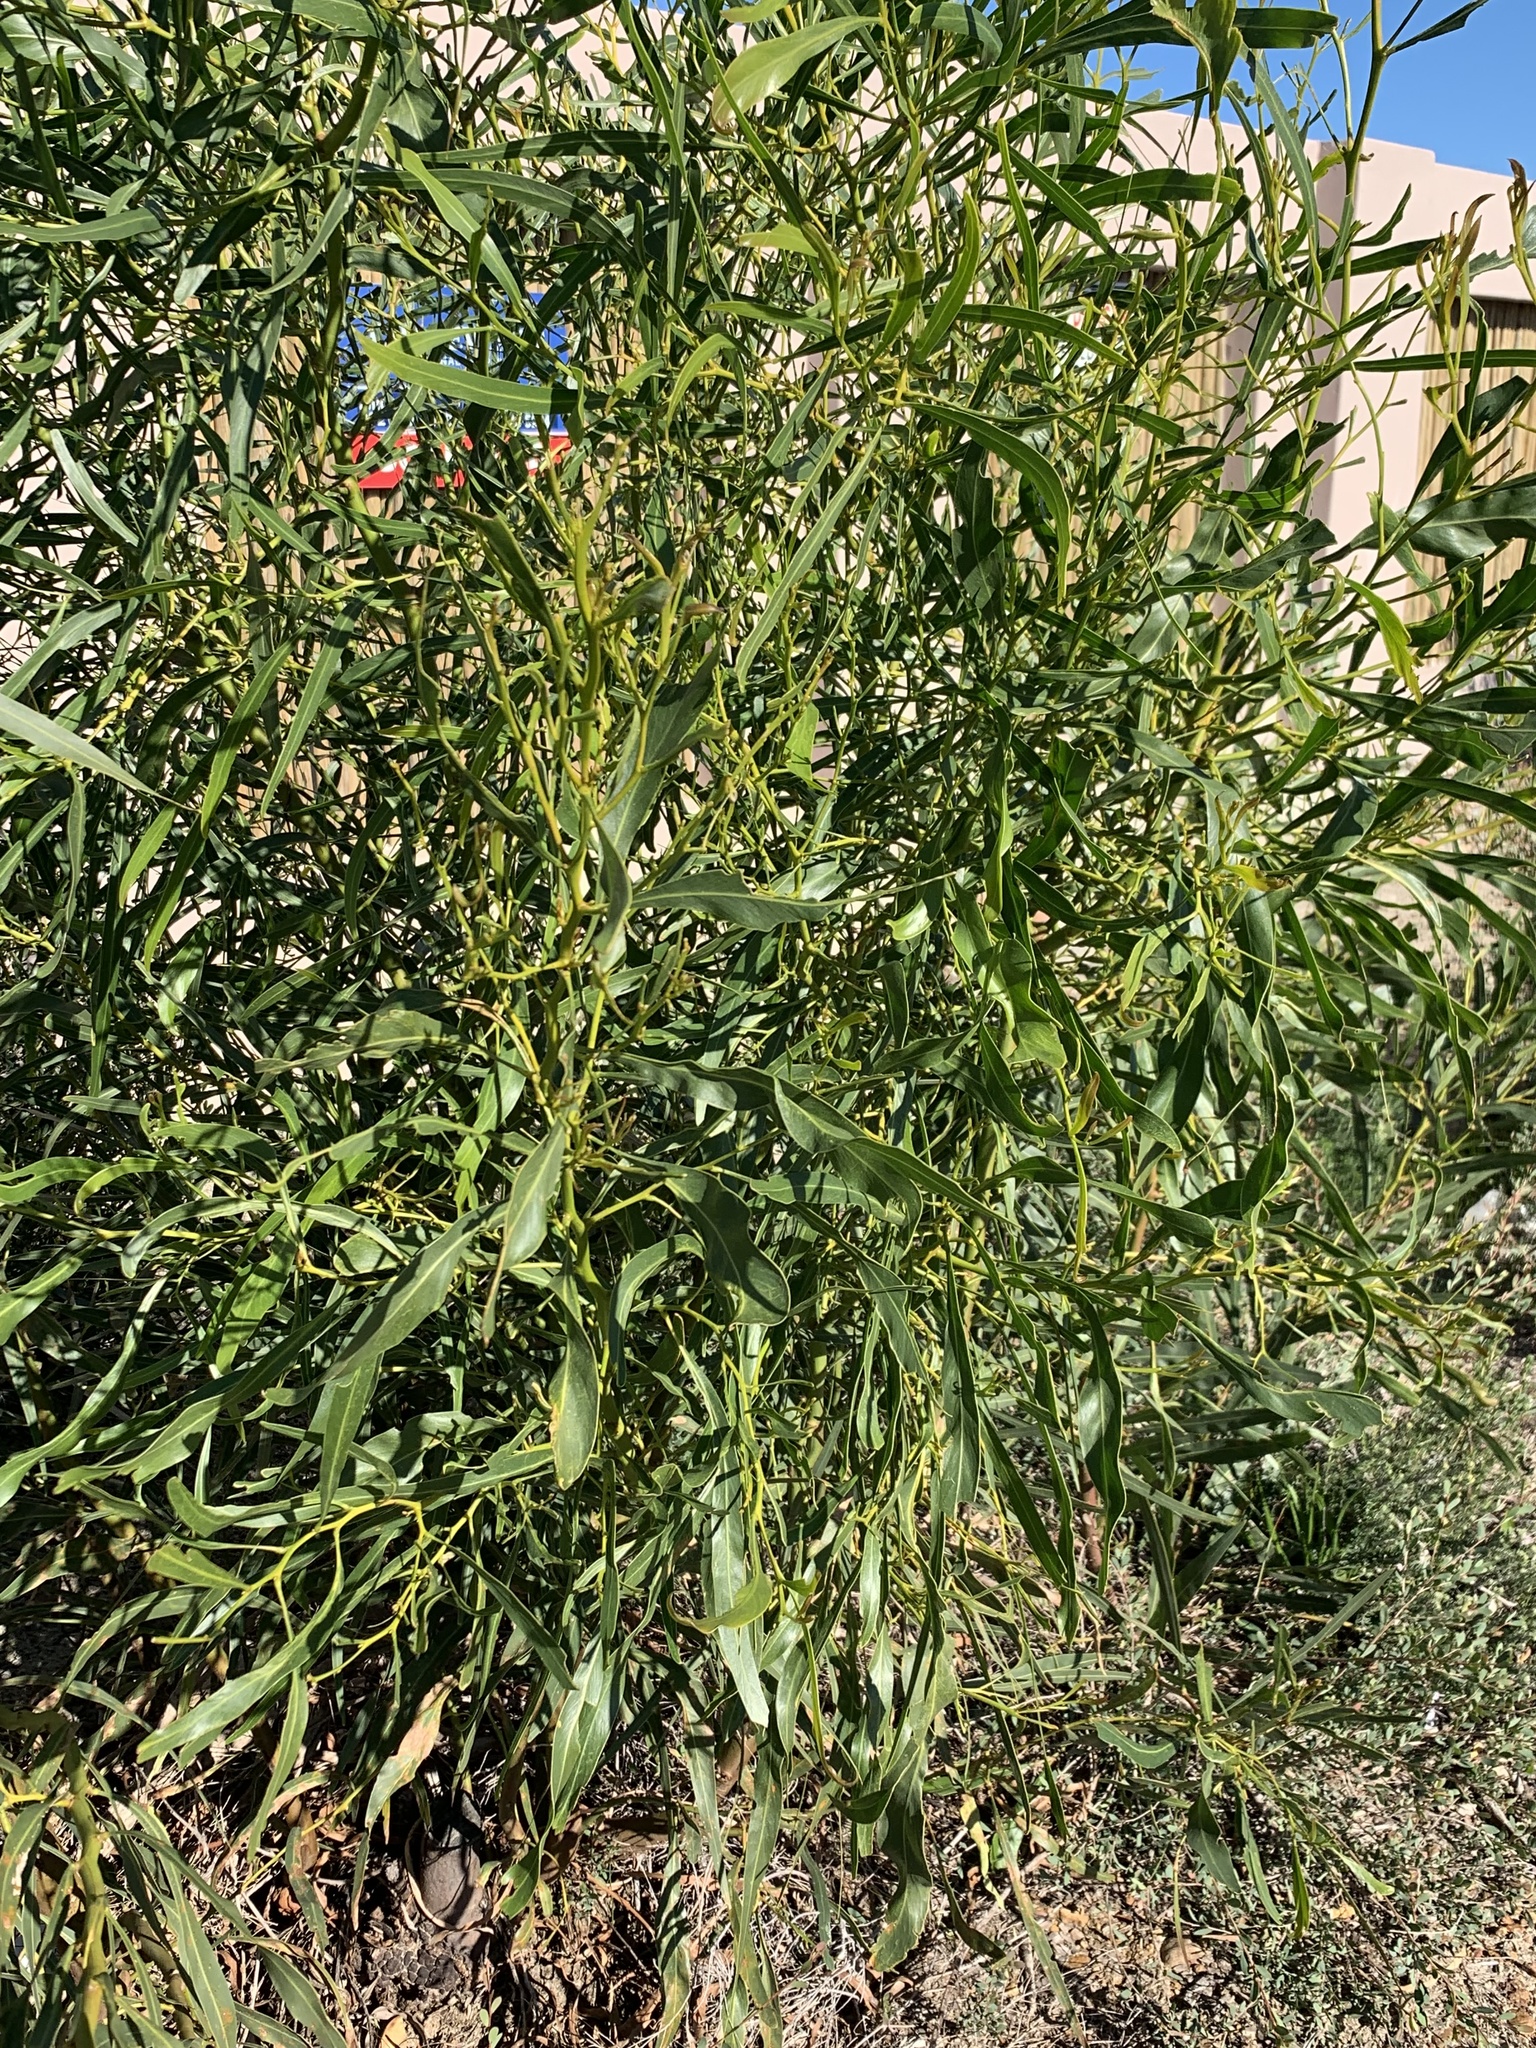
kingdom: Plantae
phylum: Tracheophyta
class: Magnoliopsida
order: Fabales
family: Fabaceae
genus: Acacia
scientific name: Acacia saligna
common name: Orange wattle
